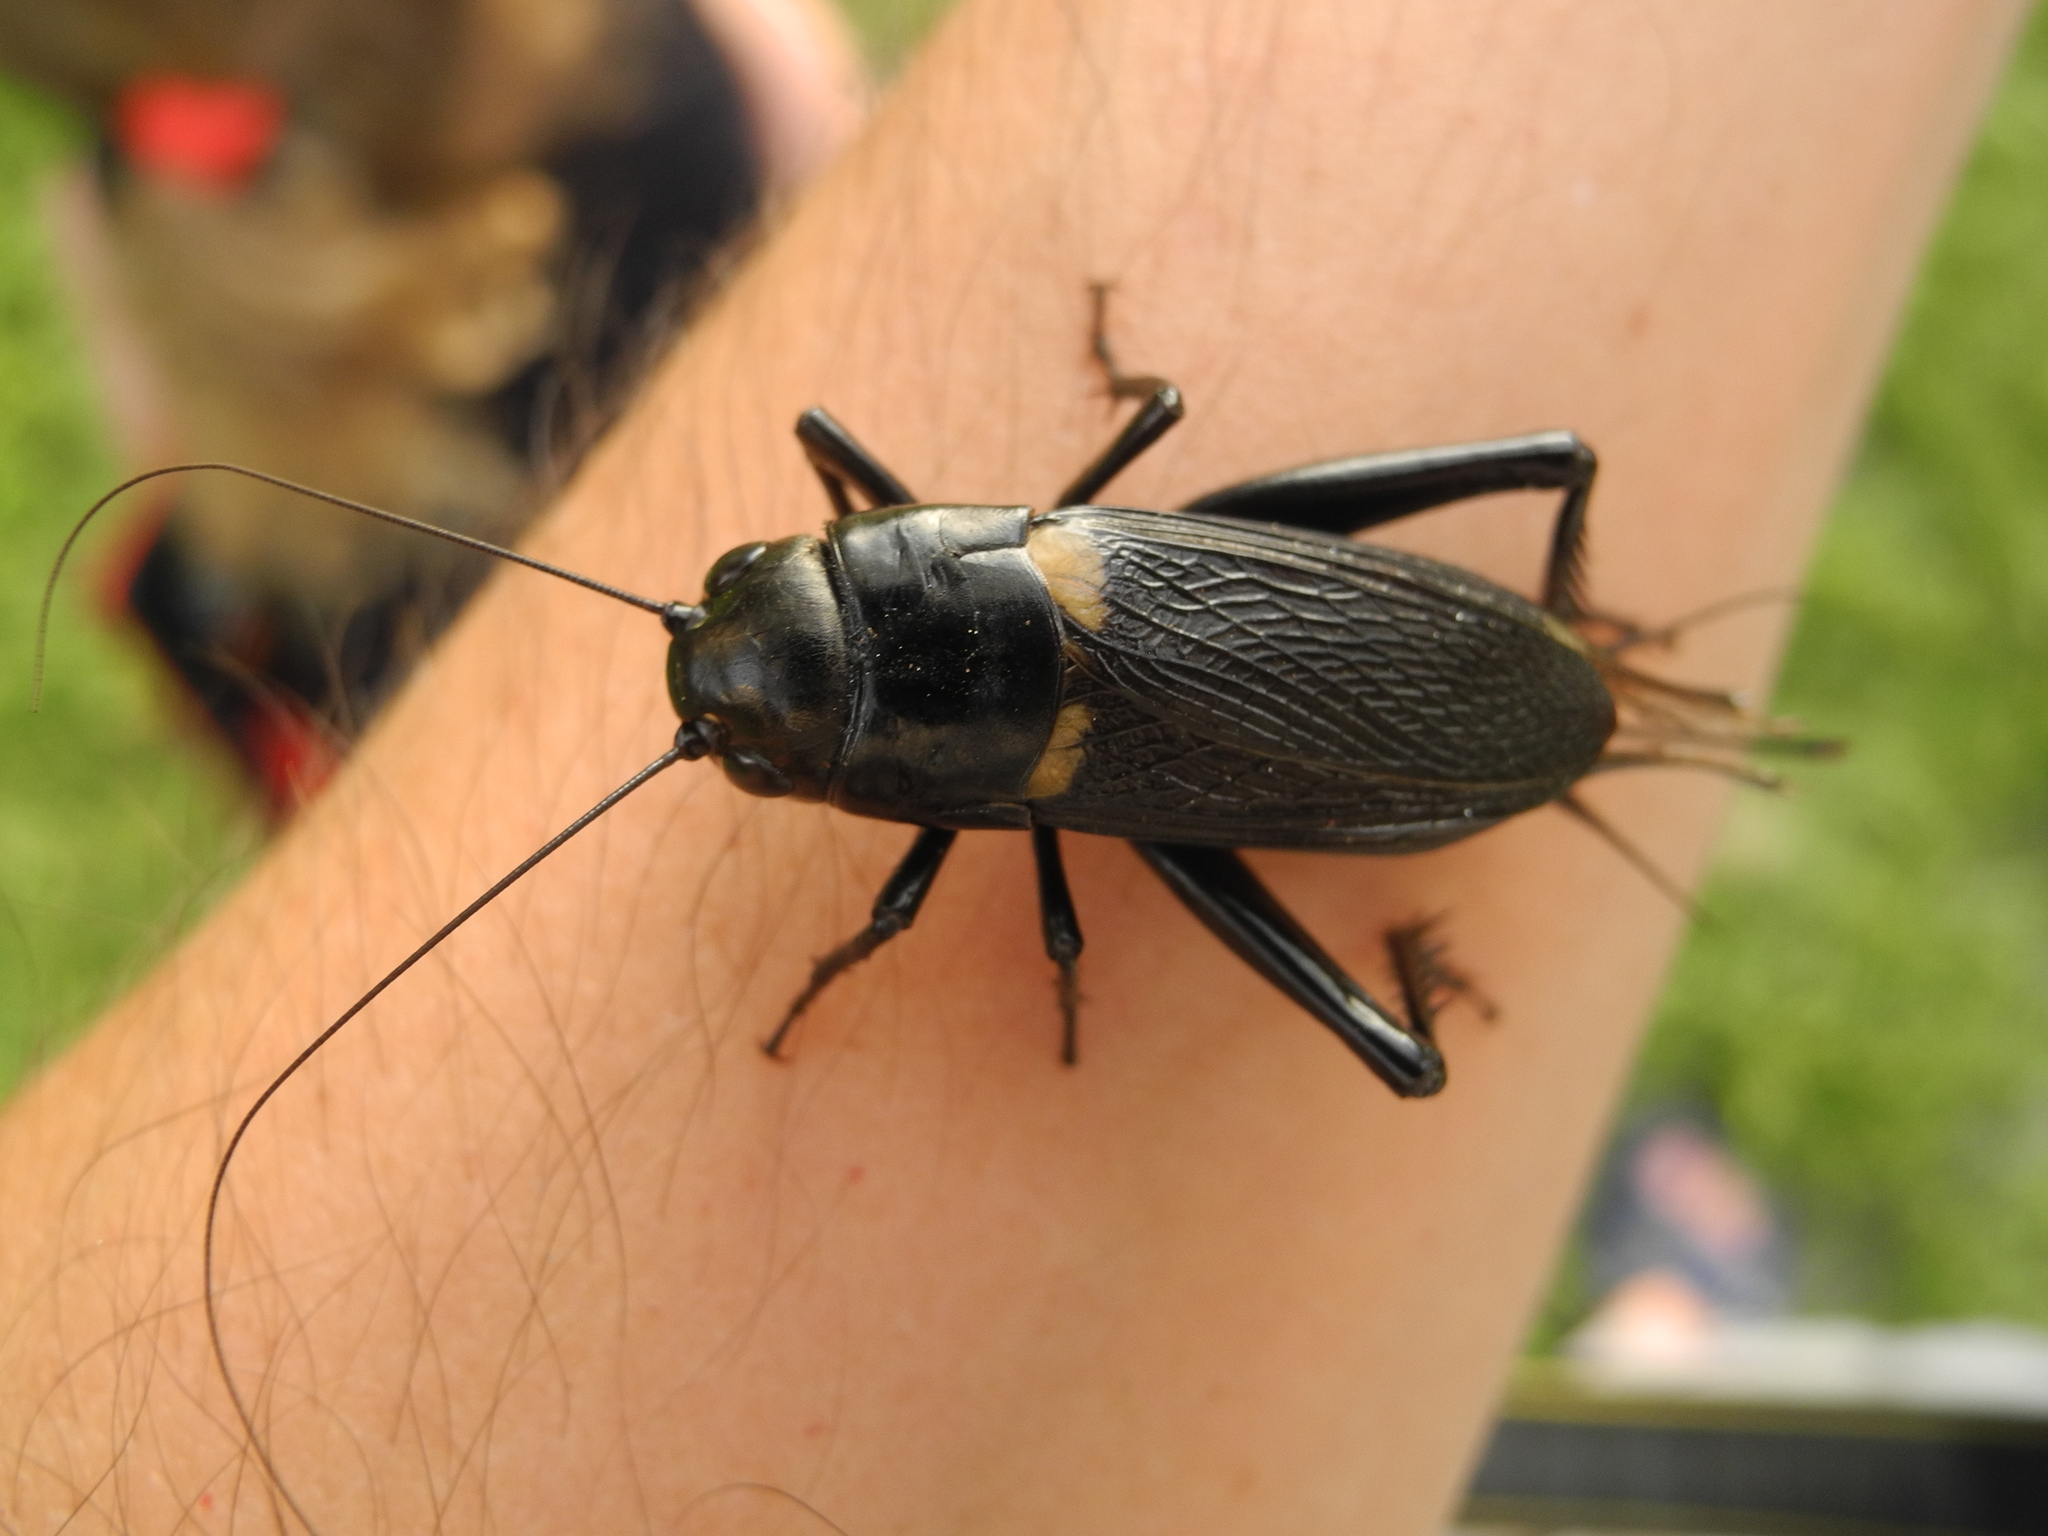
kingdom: Animalia
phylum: Arthropoda
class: Insecta
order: Orthoptera
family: Gryllidae
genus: Gryllus
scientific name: Gryllus bimaculatus
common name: Two-spotted cricket
